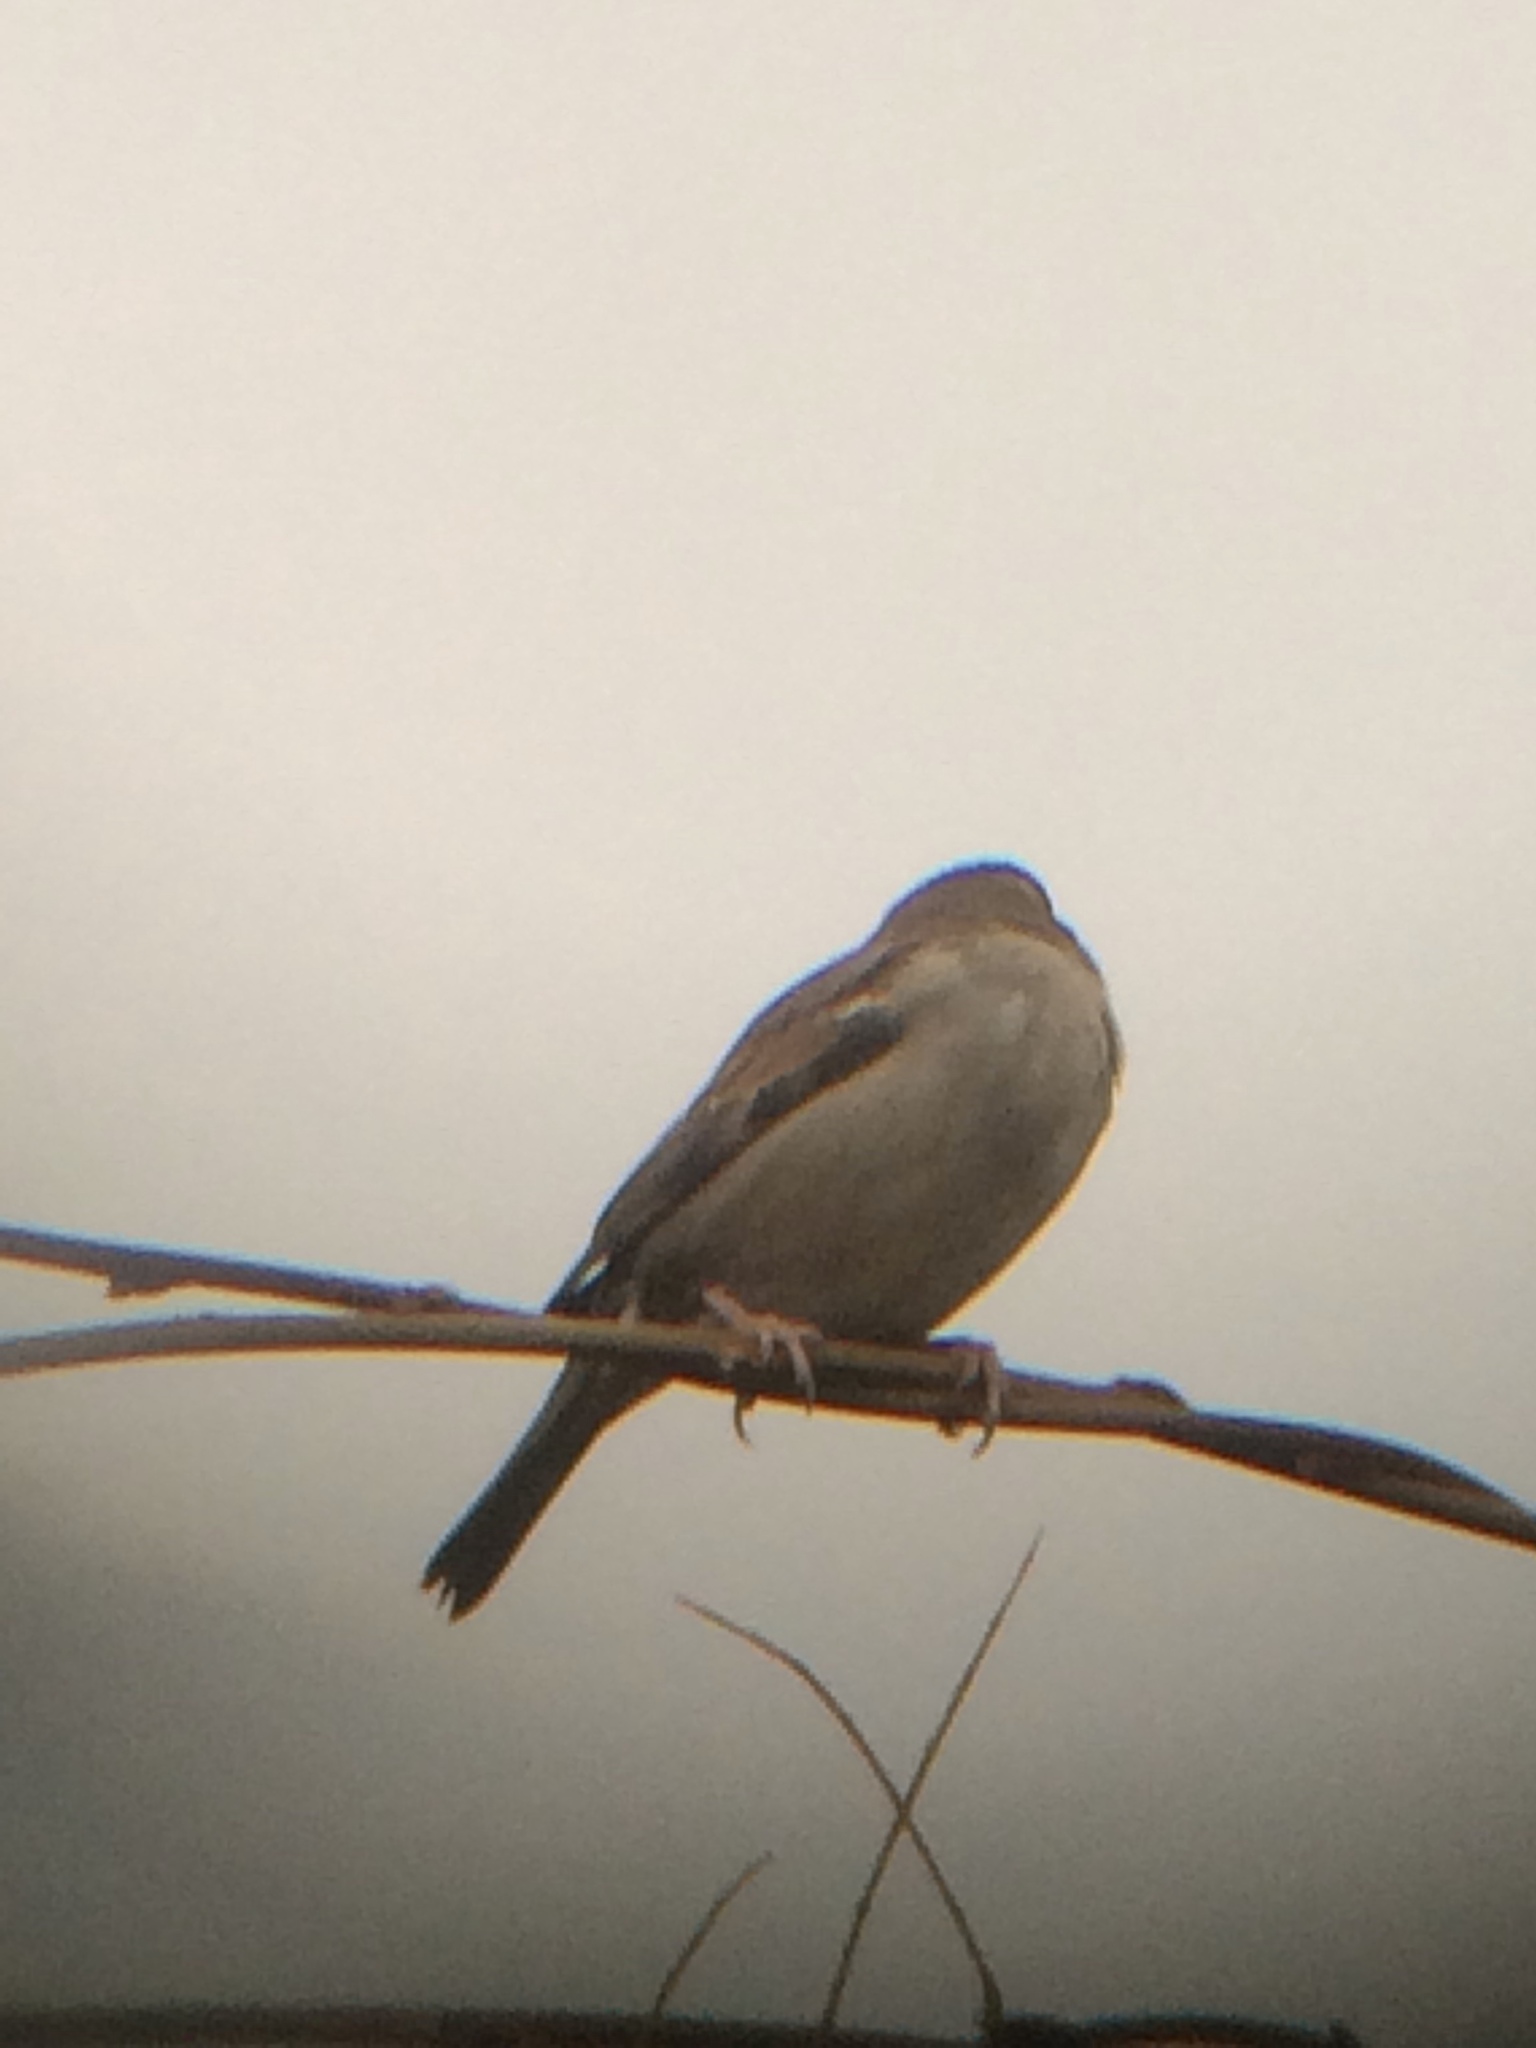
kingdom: Animalia
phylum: Chordata
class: Aves
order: Passeriformes
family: Passeridae
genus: Passer
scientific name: Passer domesticus
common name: House sparrow
